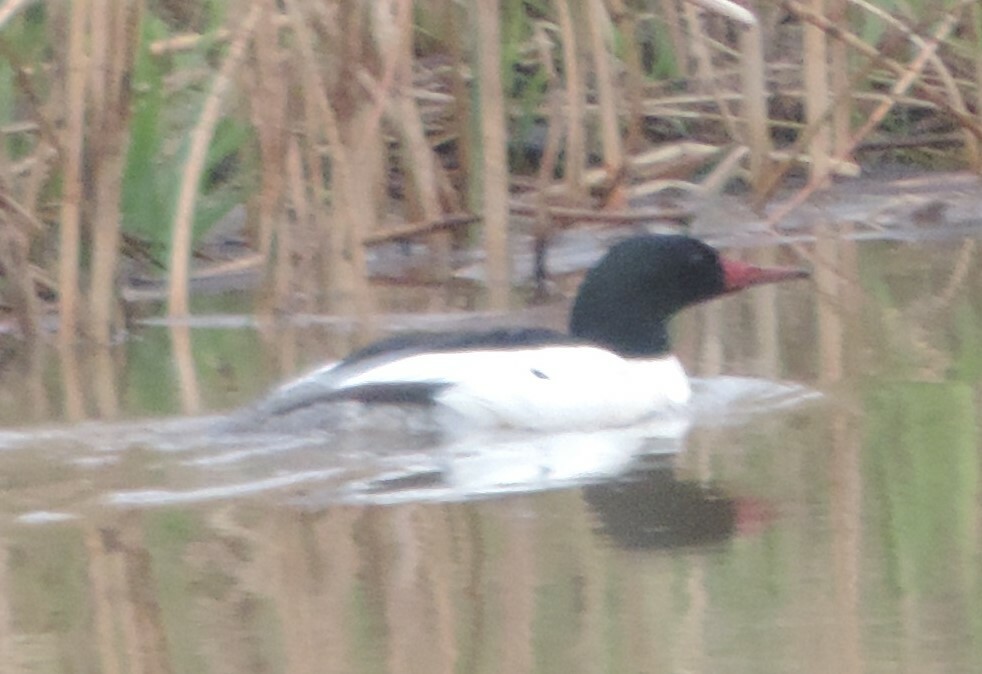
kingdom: Animalia
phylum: Chordata
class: Aves
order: Anseriformes
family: Anatidae
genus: Mergus
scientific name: Mergus merganser
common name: Common merganser
